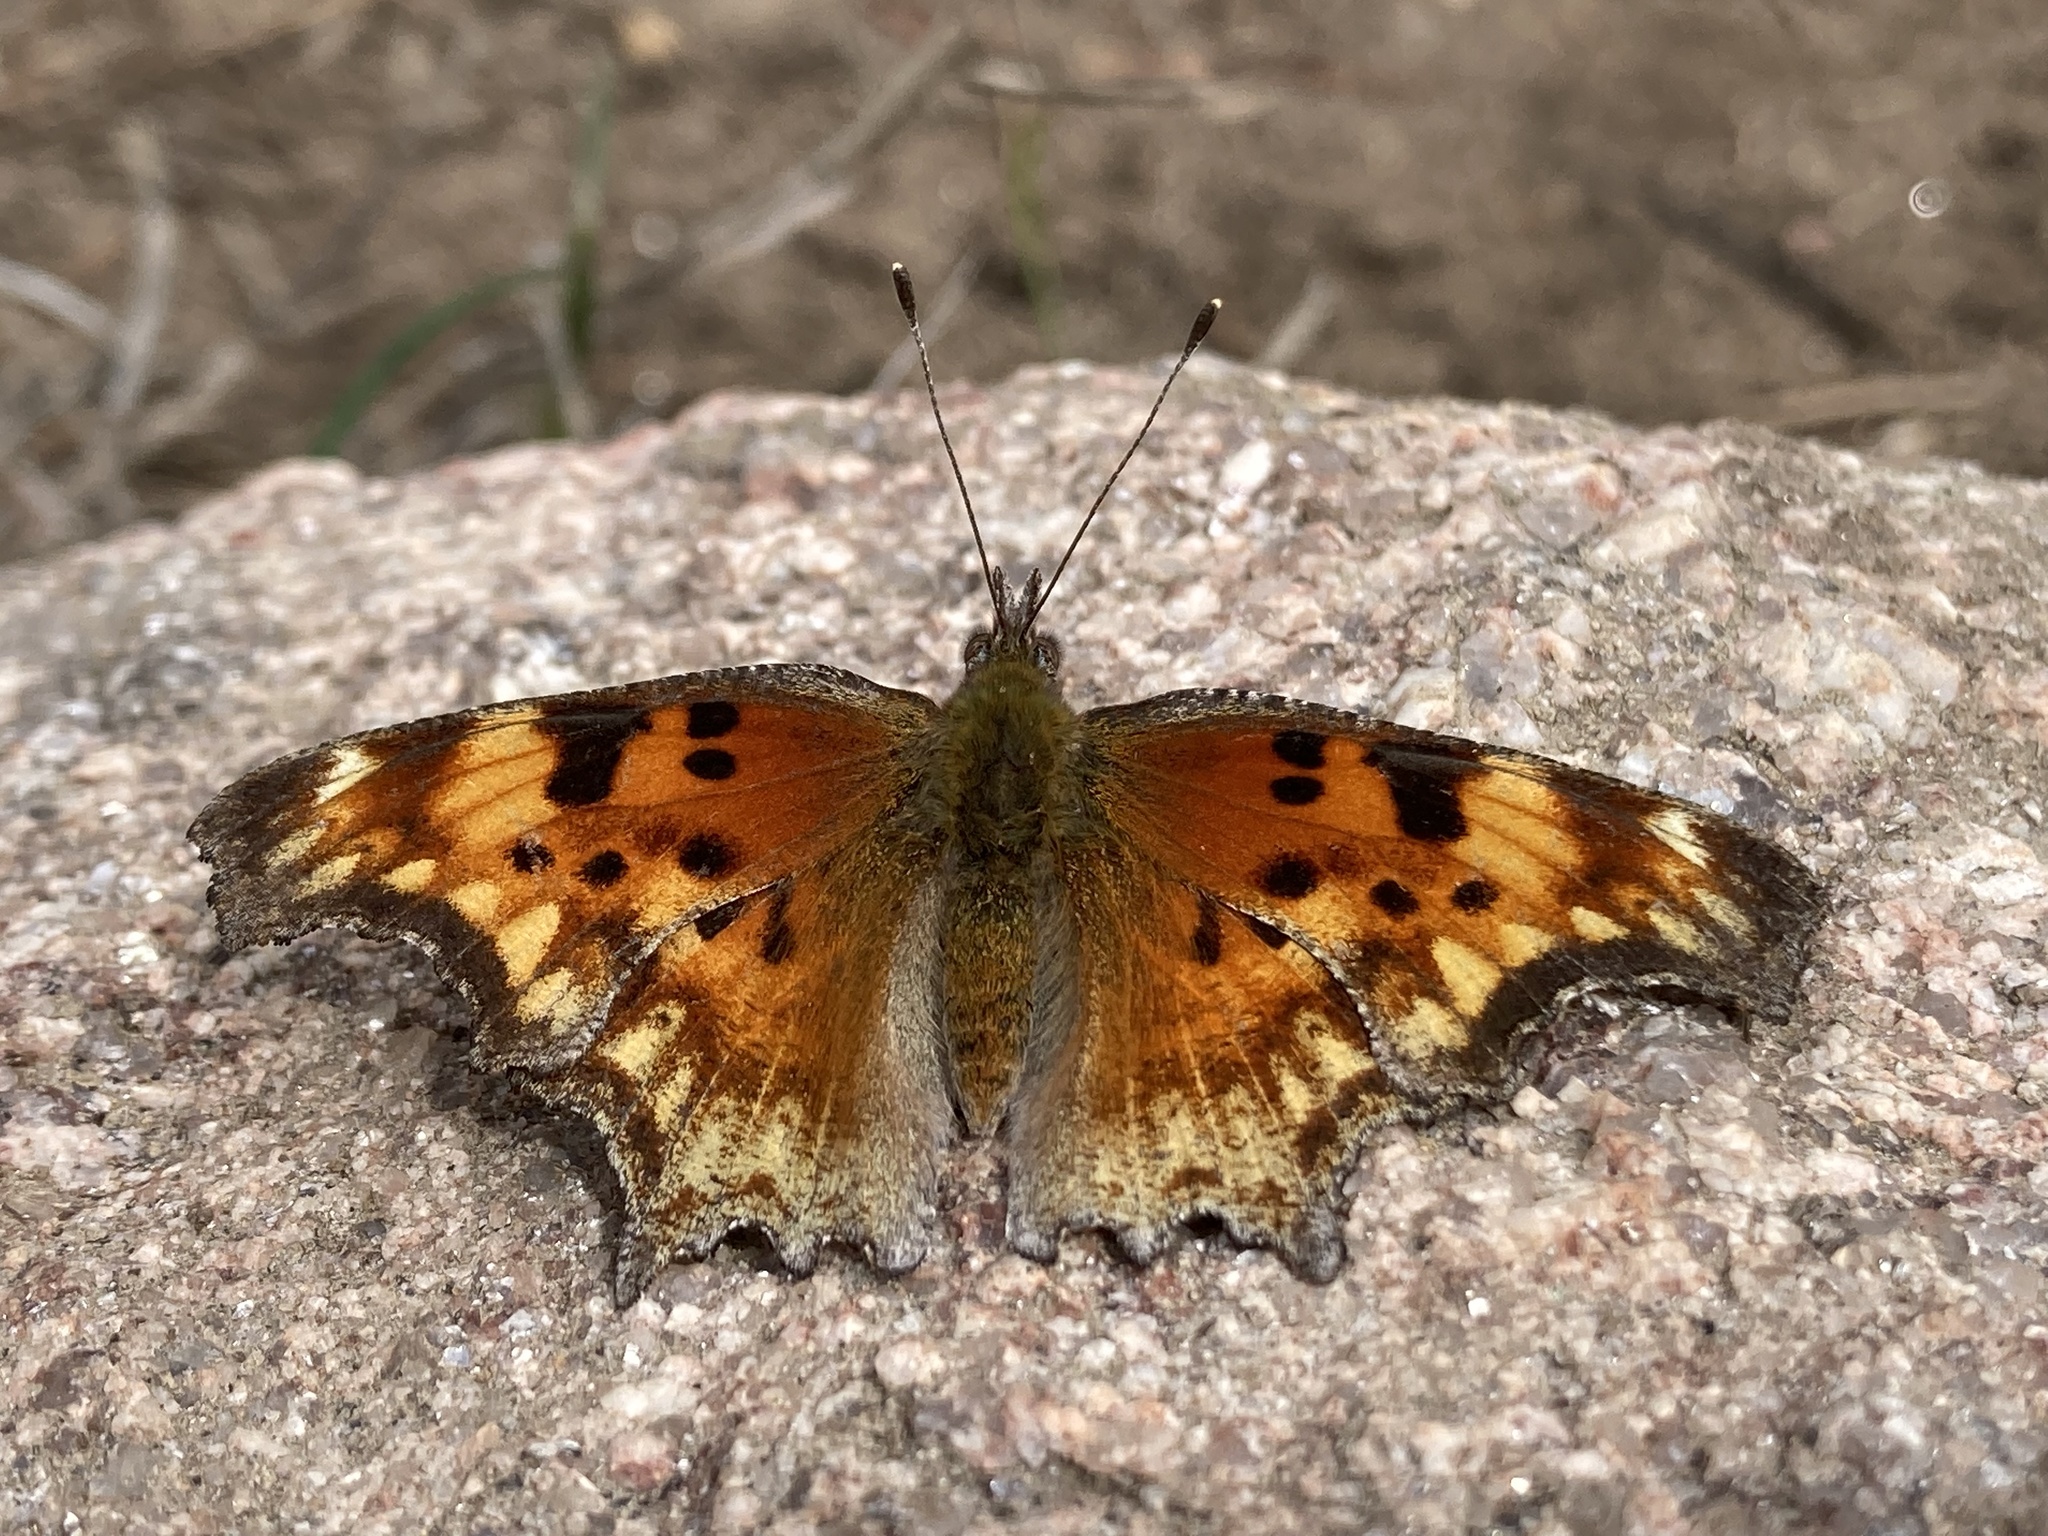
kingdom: Animalia
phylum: Arthropoda
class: Insecta
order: Lepidoptera
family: Nymphalidae
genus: Polygonia
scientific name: Polygonia gracilis
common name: Hoary comma
